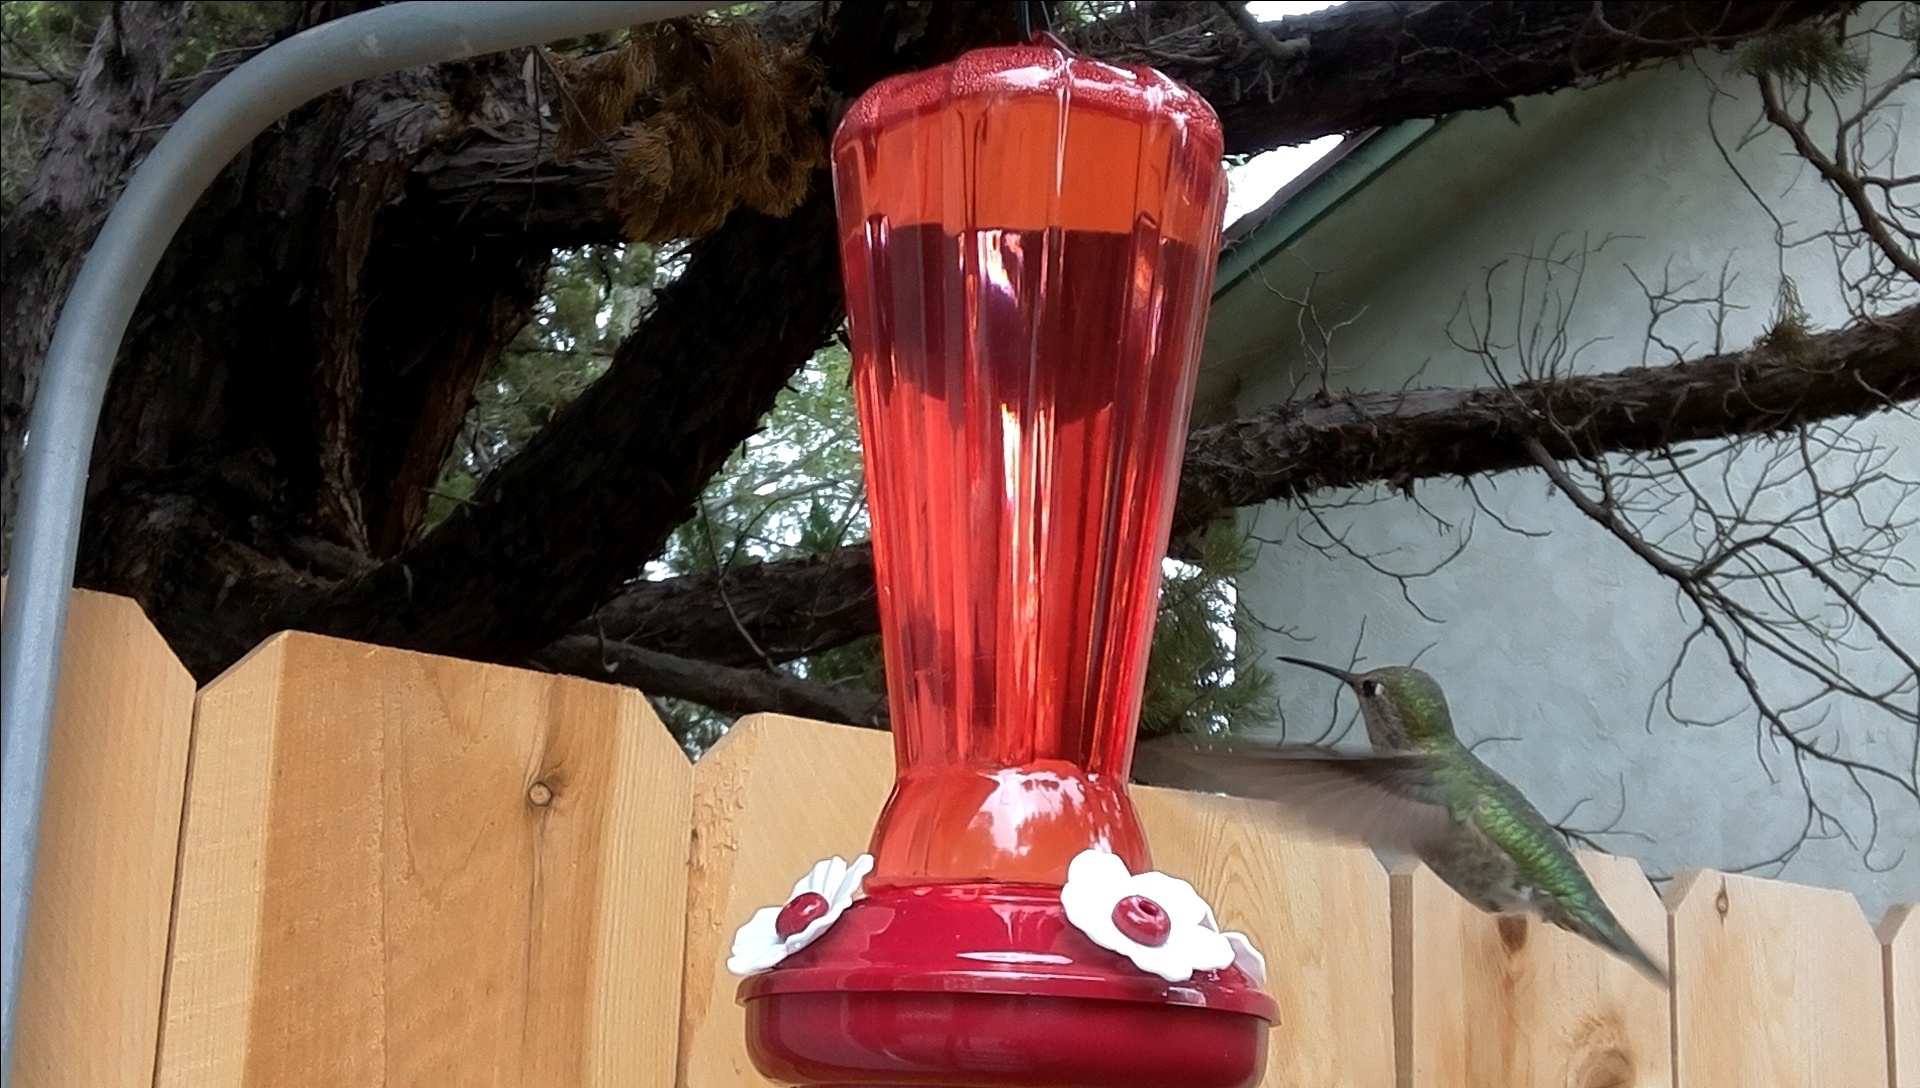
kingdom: Animalia
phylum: Chordata
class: Aves
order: Apodiformes
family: Trochilidae
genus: Calypte
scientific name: Calypte anna
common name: Anna's hummingbird
